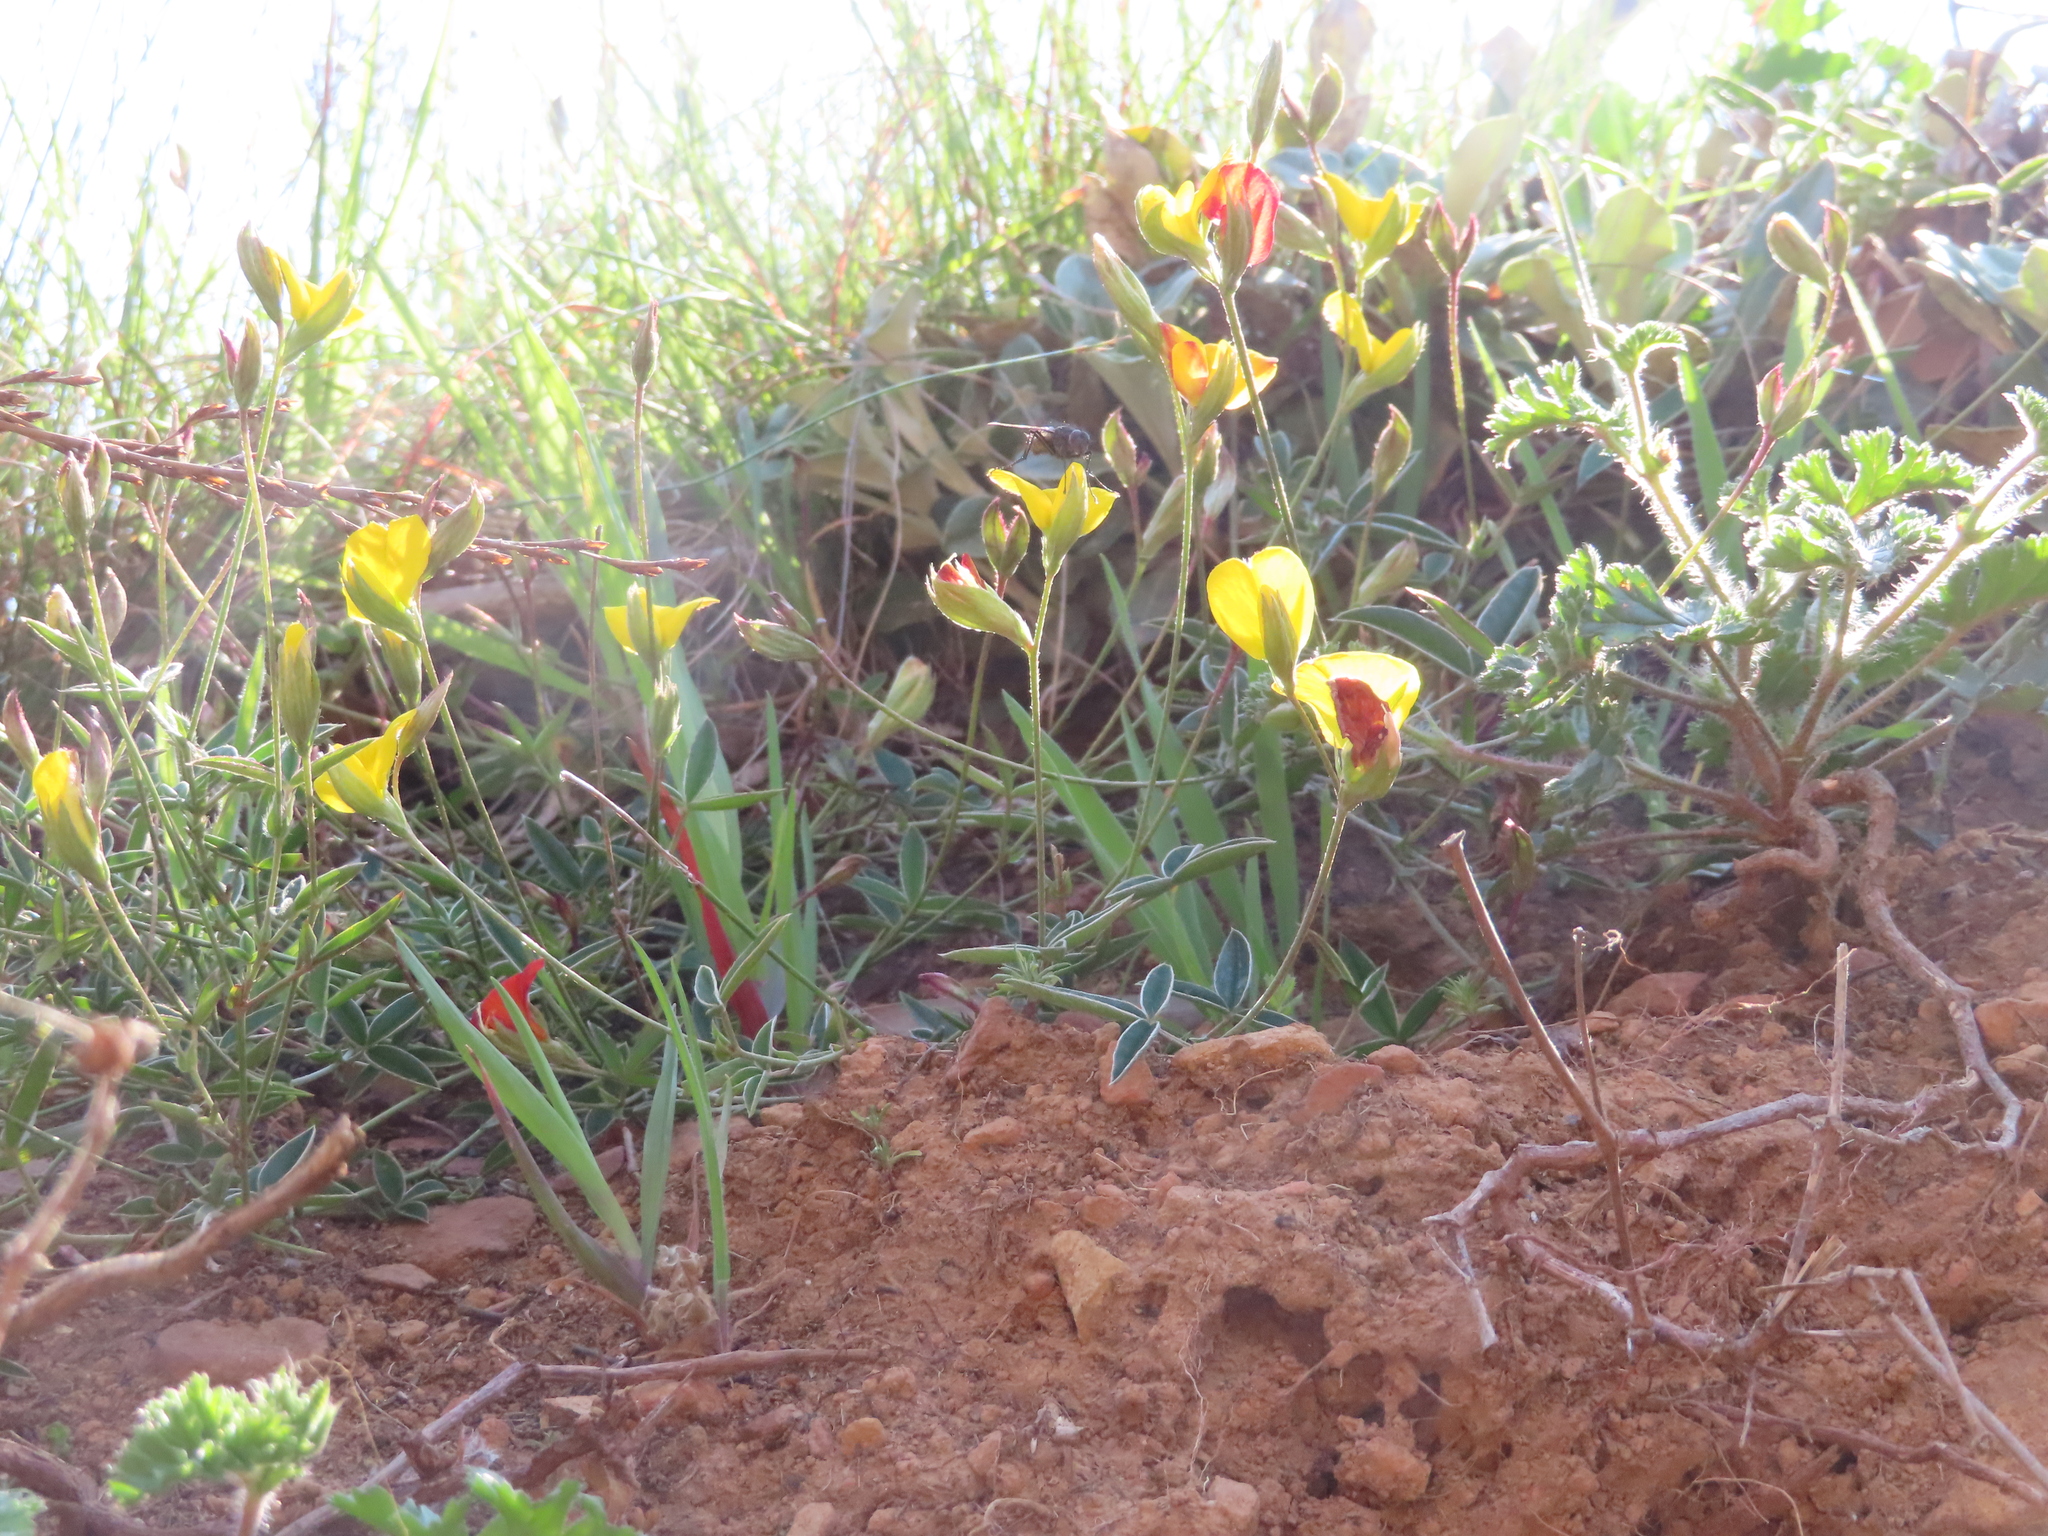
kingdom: Plantae
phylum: Tracheophyta
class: Magnoliopsida
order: Fabales
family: Fabaceae
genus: Argyrolobium
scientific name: Argyrolobium lunare
